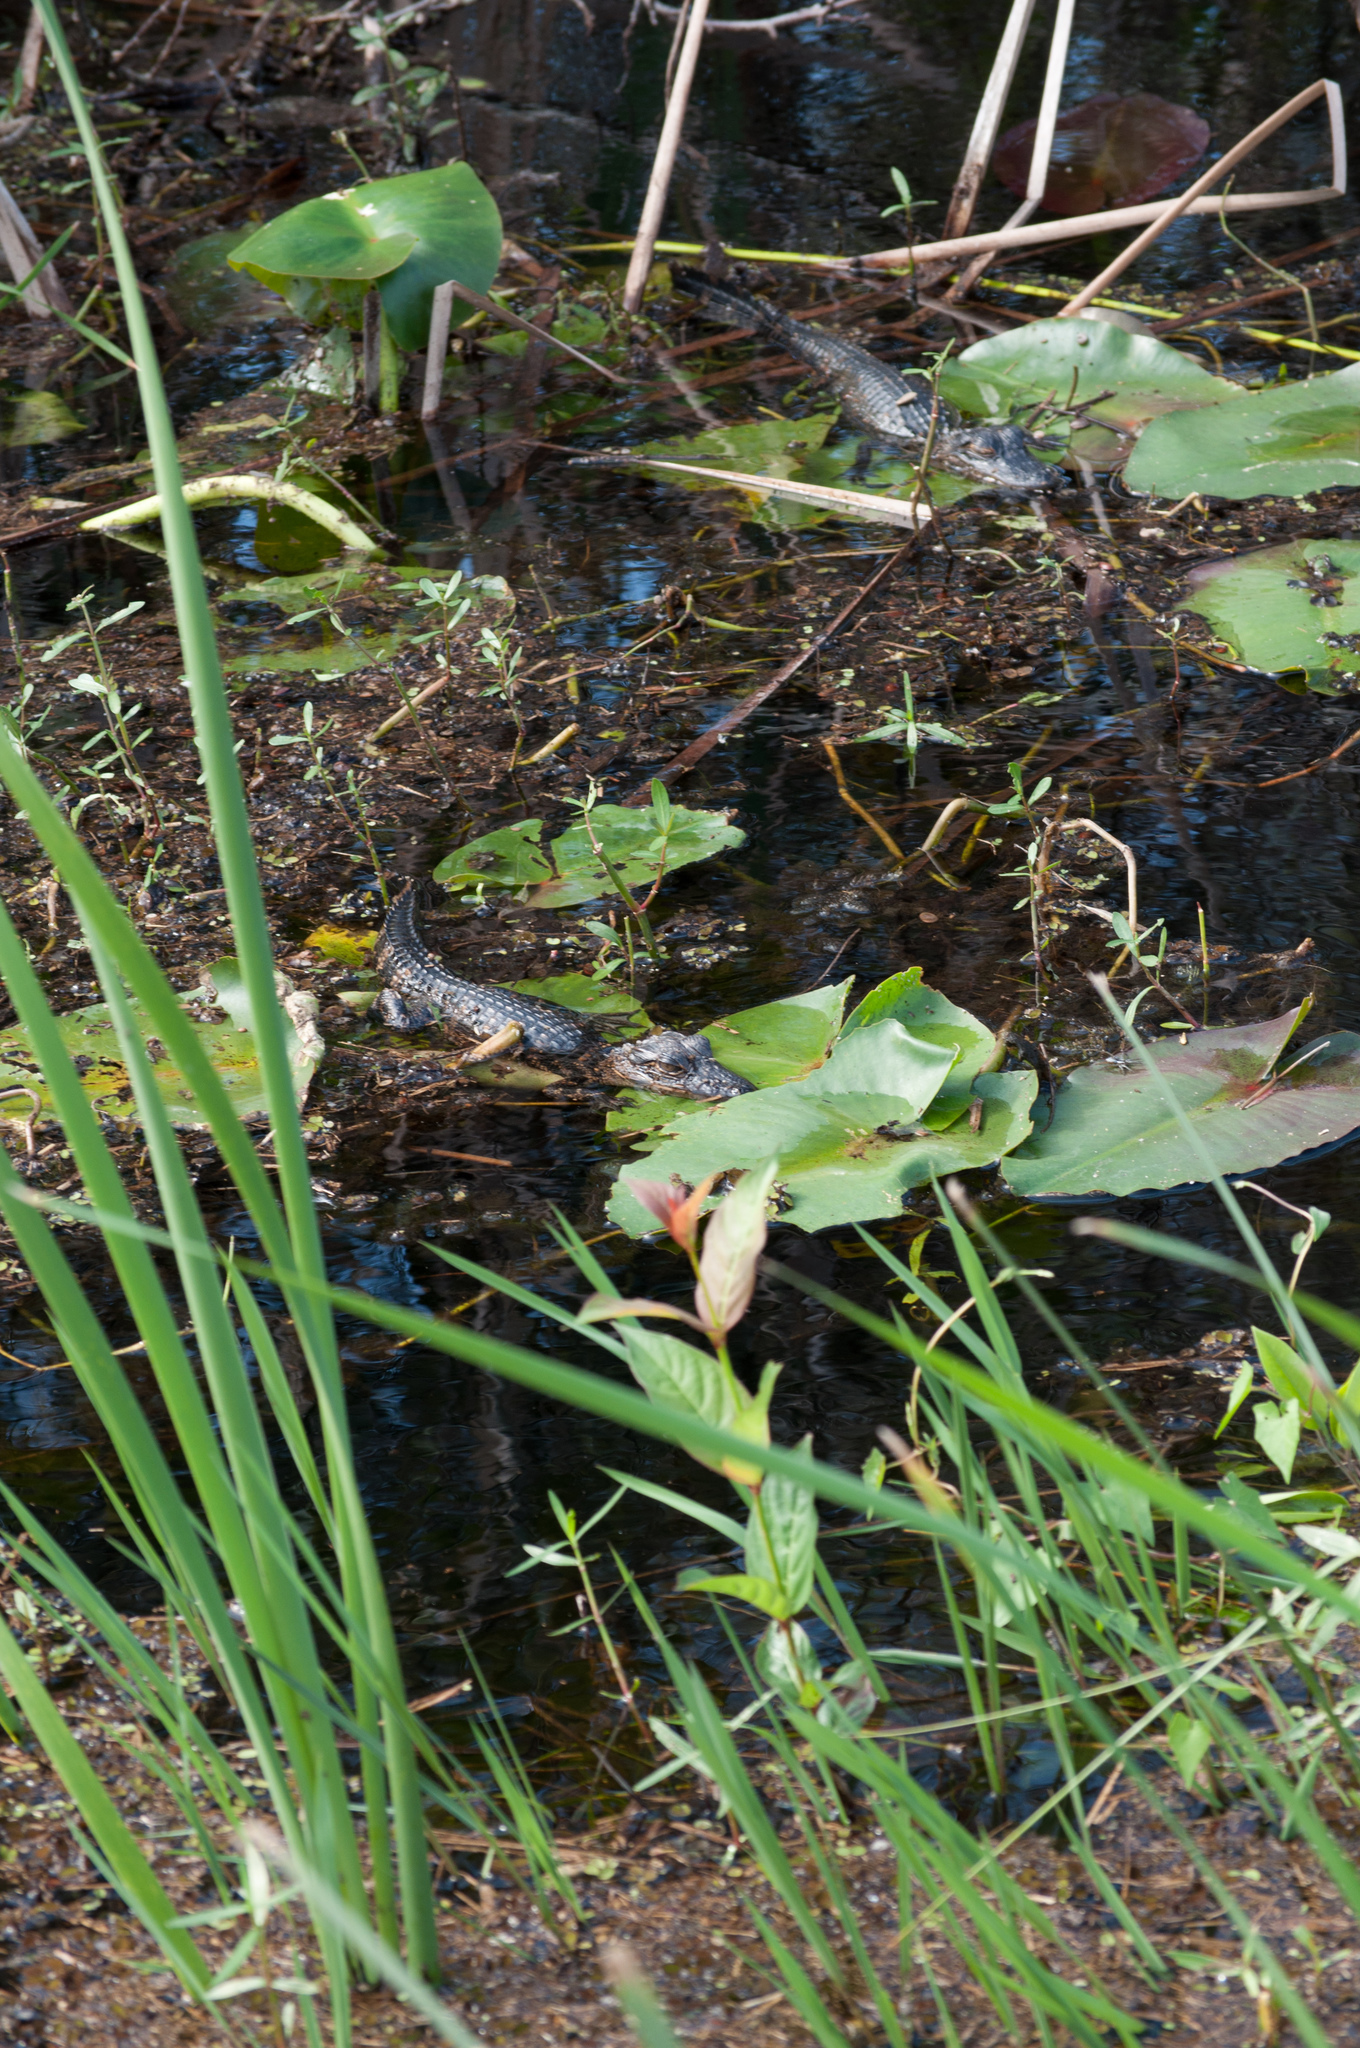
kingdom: Animalia
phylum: Chordata
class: Crocodylia
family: Alligatoridae
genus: Alligator
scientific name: Alligator mississippiensis
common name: American alligator
